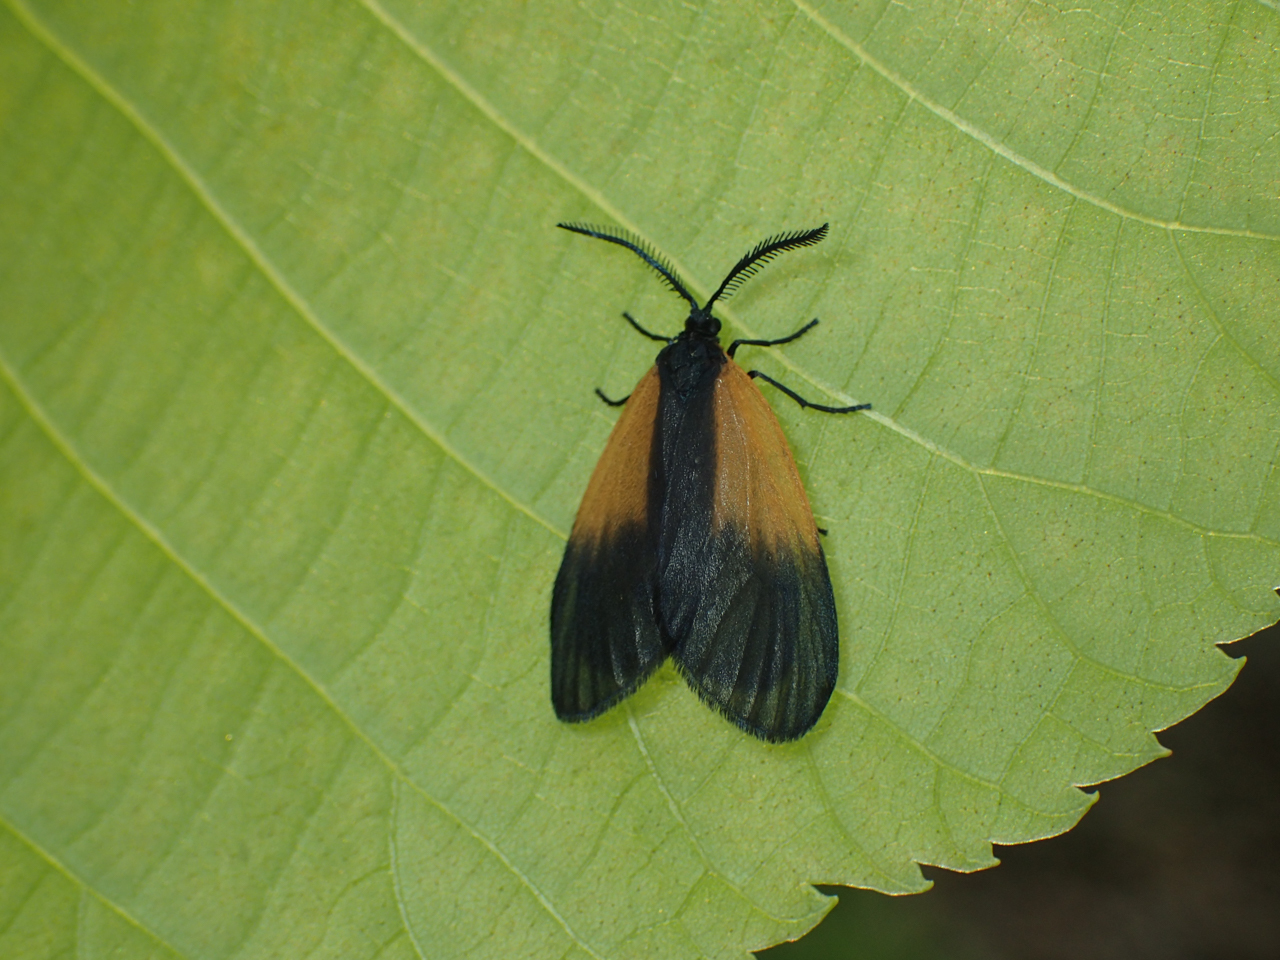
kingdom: Animalia
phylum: Arthropoda
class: Insecta
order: Lepidoptera
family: Zygaenidae
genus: Malthaca
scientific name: Malthaca dimidiata
